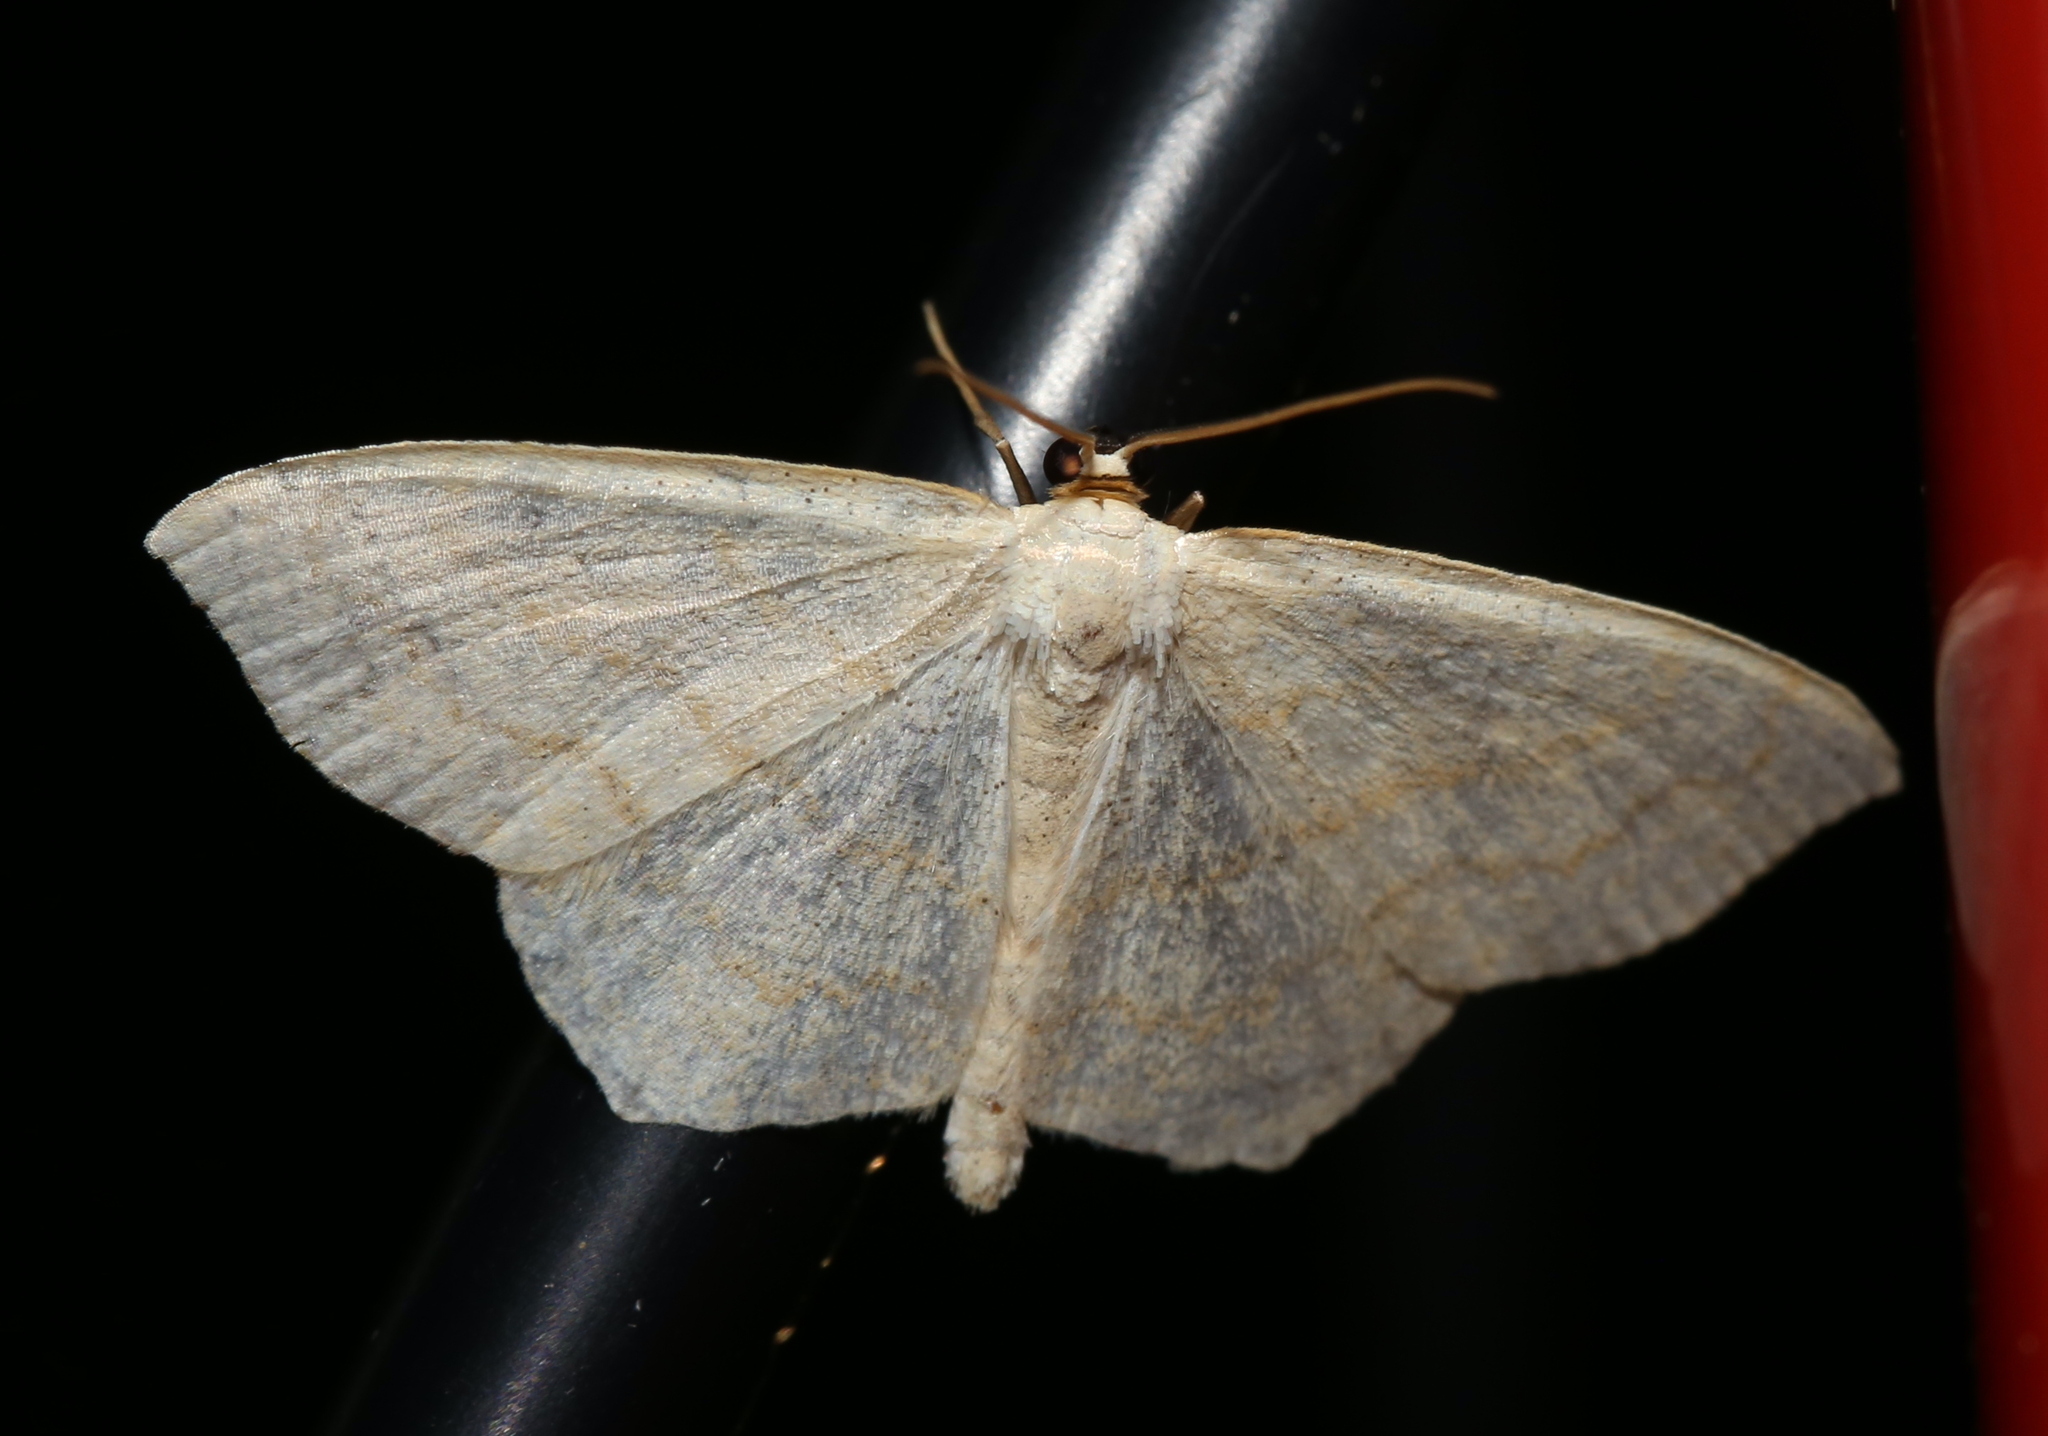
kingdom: Animalia
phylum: Arthropoda
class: Insecta
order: Lepidoptera
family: Geometridae
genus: Scopula
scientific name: Scopula limboundata
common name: Large lace border
